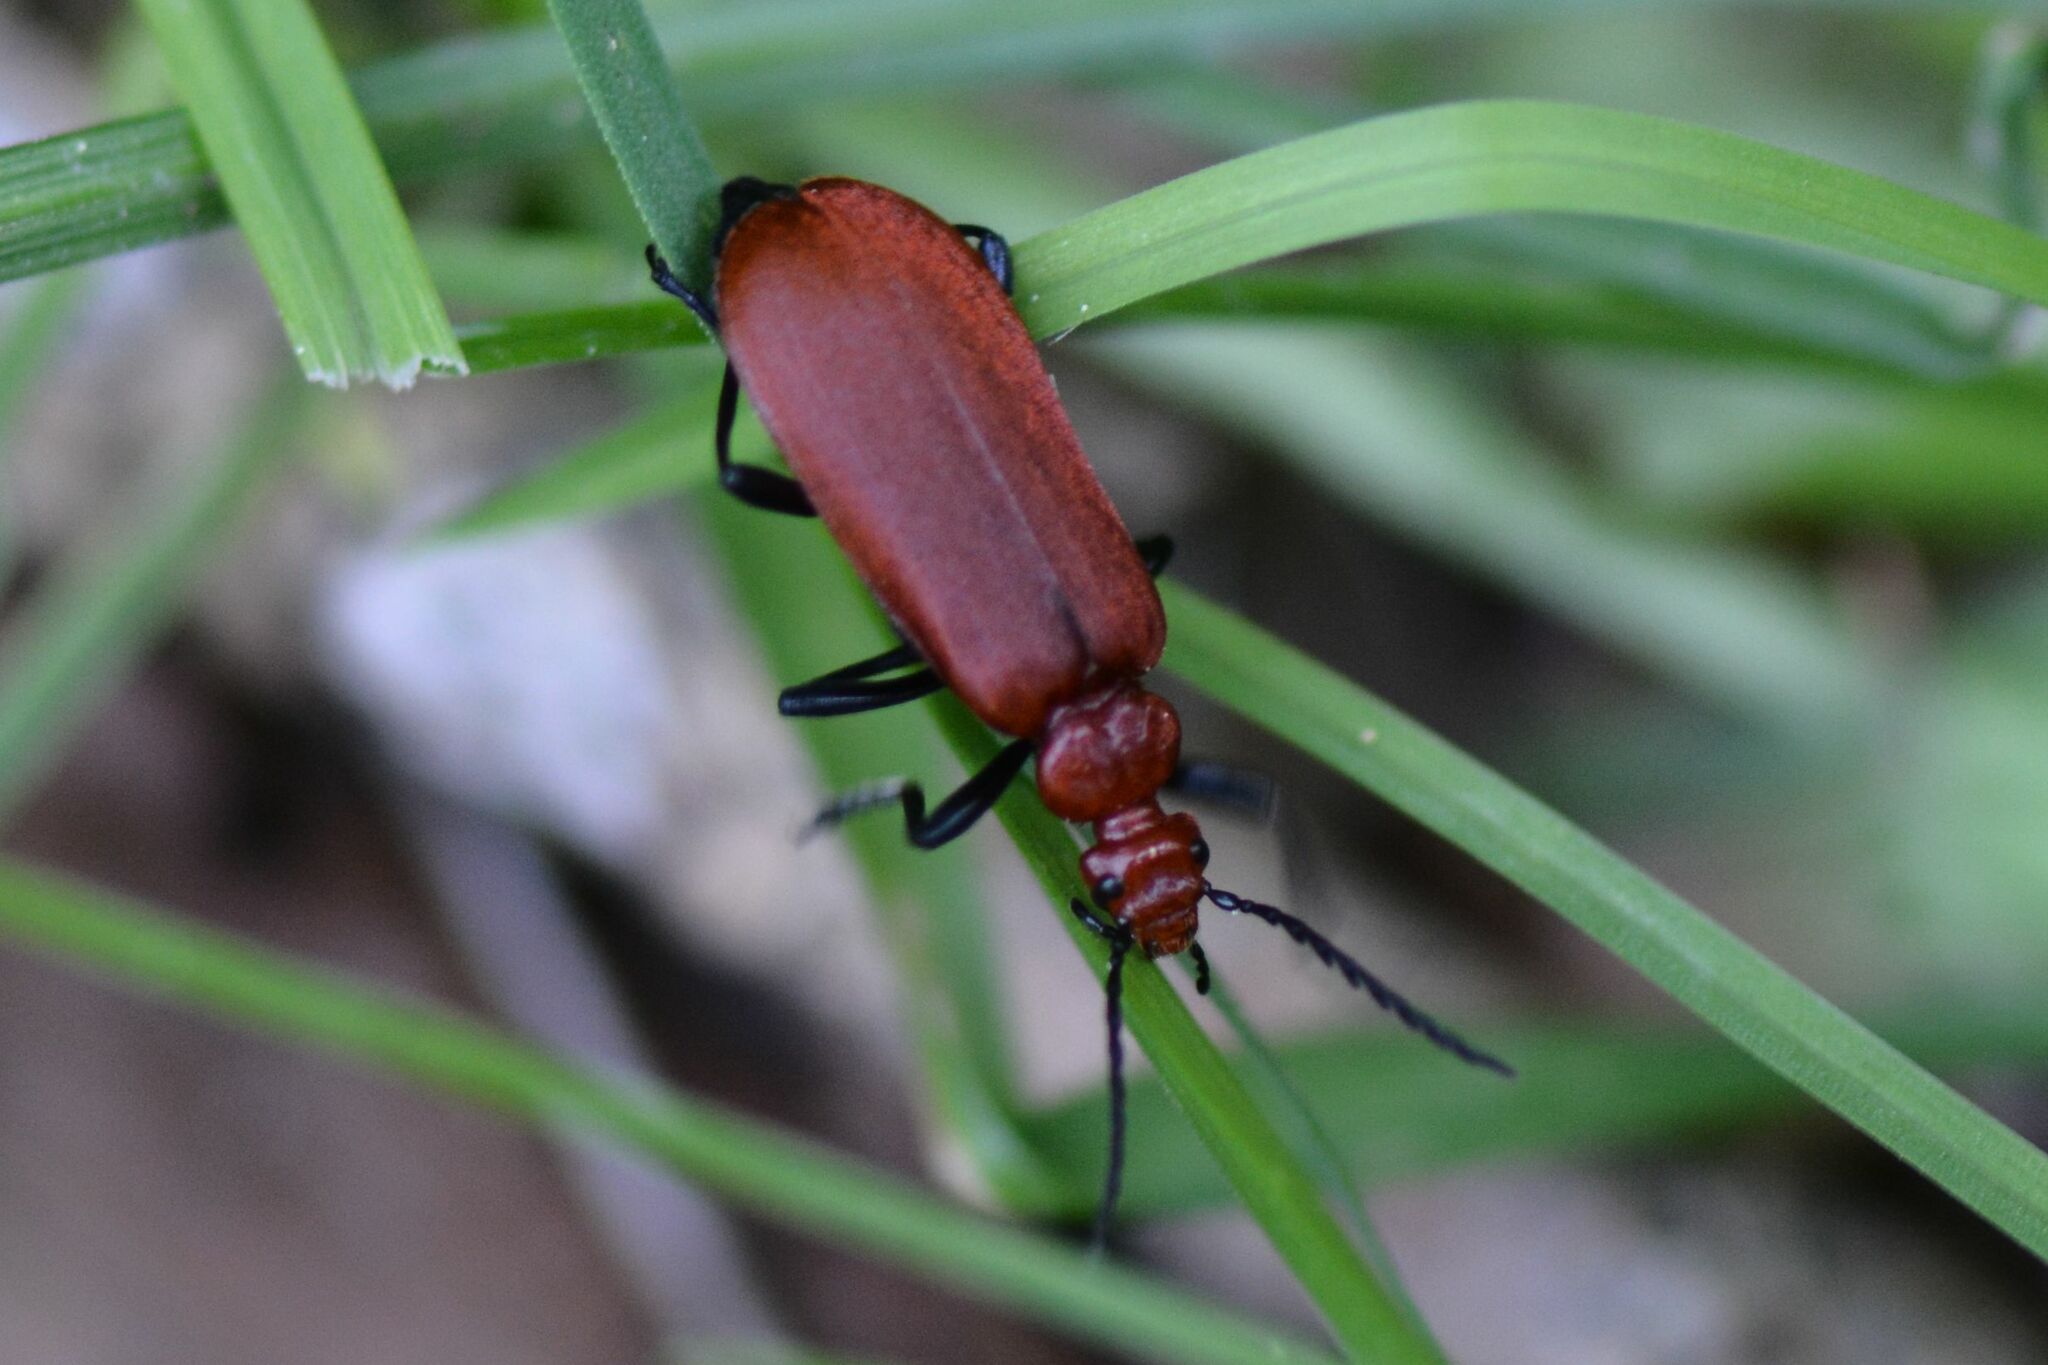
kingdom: Animalia
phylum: Arthropoda
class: Insecta
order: Coleoptera
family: Pyrochroidae
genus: Pyrochroa
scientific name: Pyrochroa serraticornis
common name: Red-headed cardinal beetle
